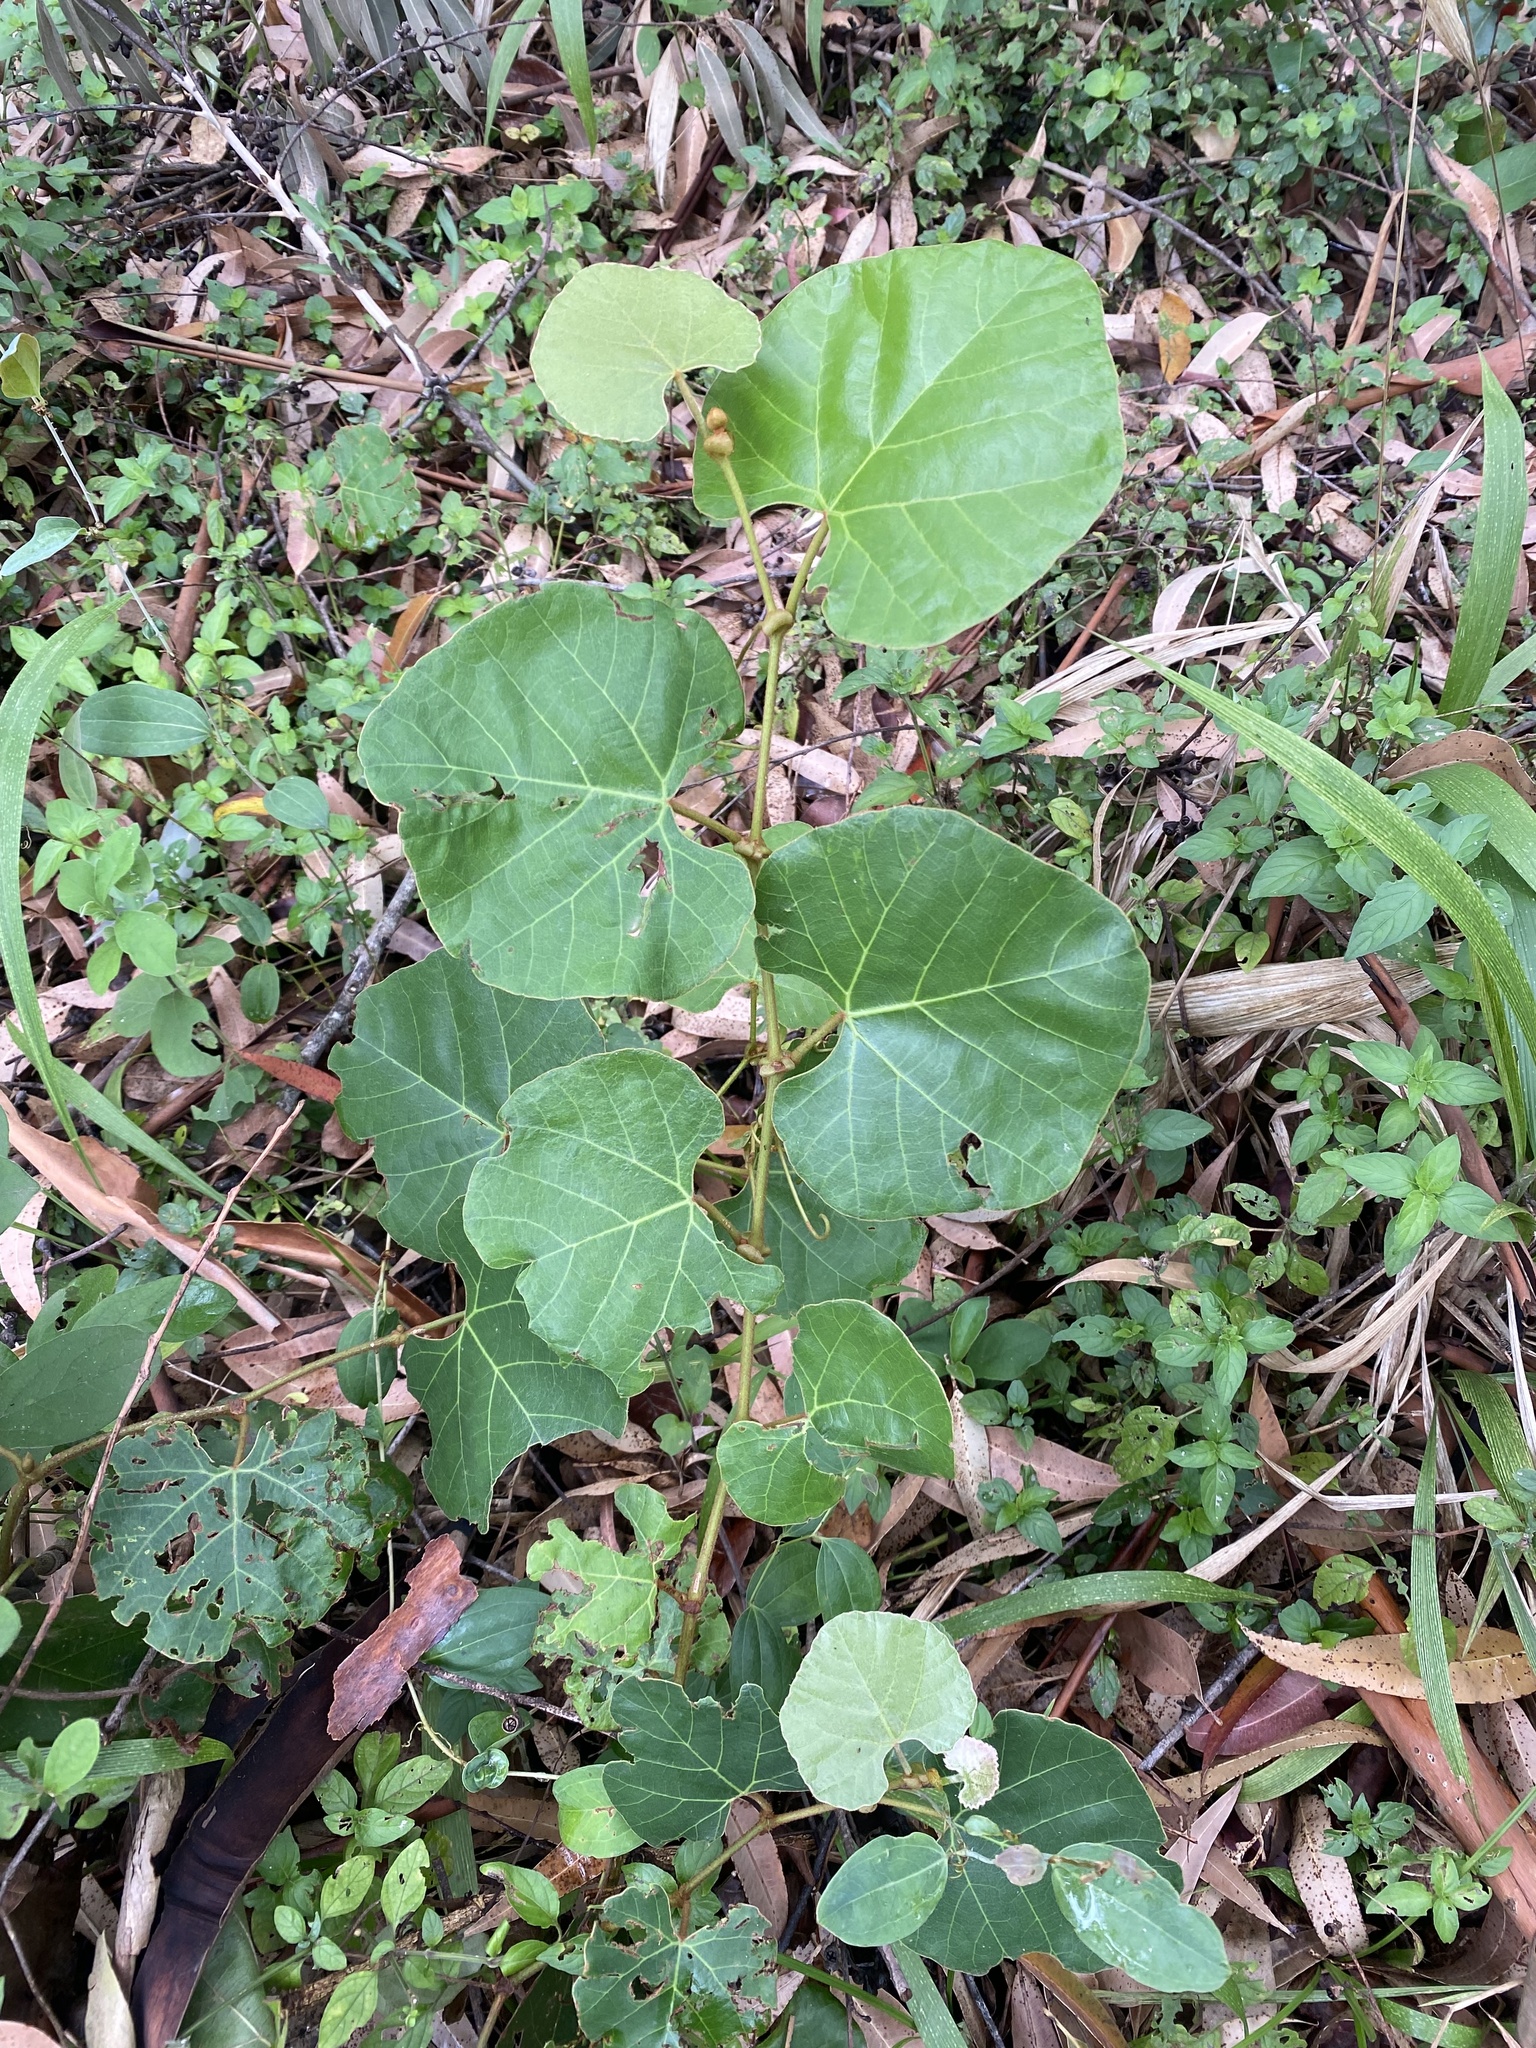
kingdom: Plantae
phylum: Tracheophyta
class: Magnoliopsida
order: Vitales
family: Vitaceae
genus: Rhoicissus
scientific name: Rhoicissus tomentosa
